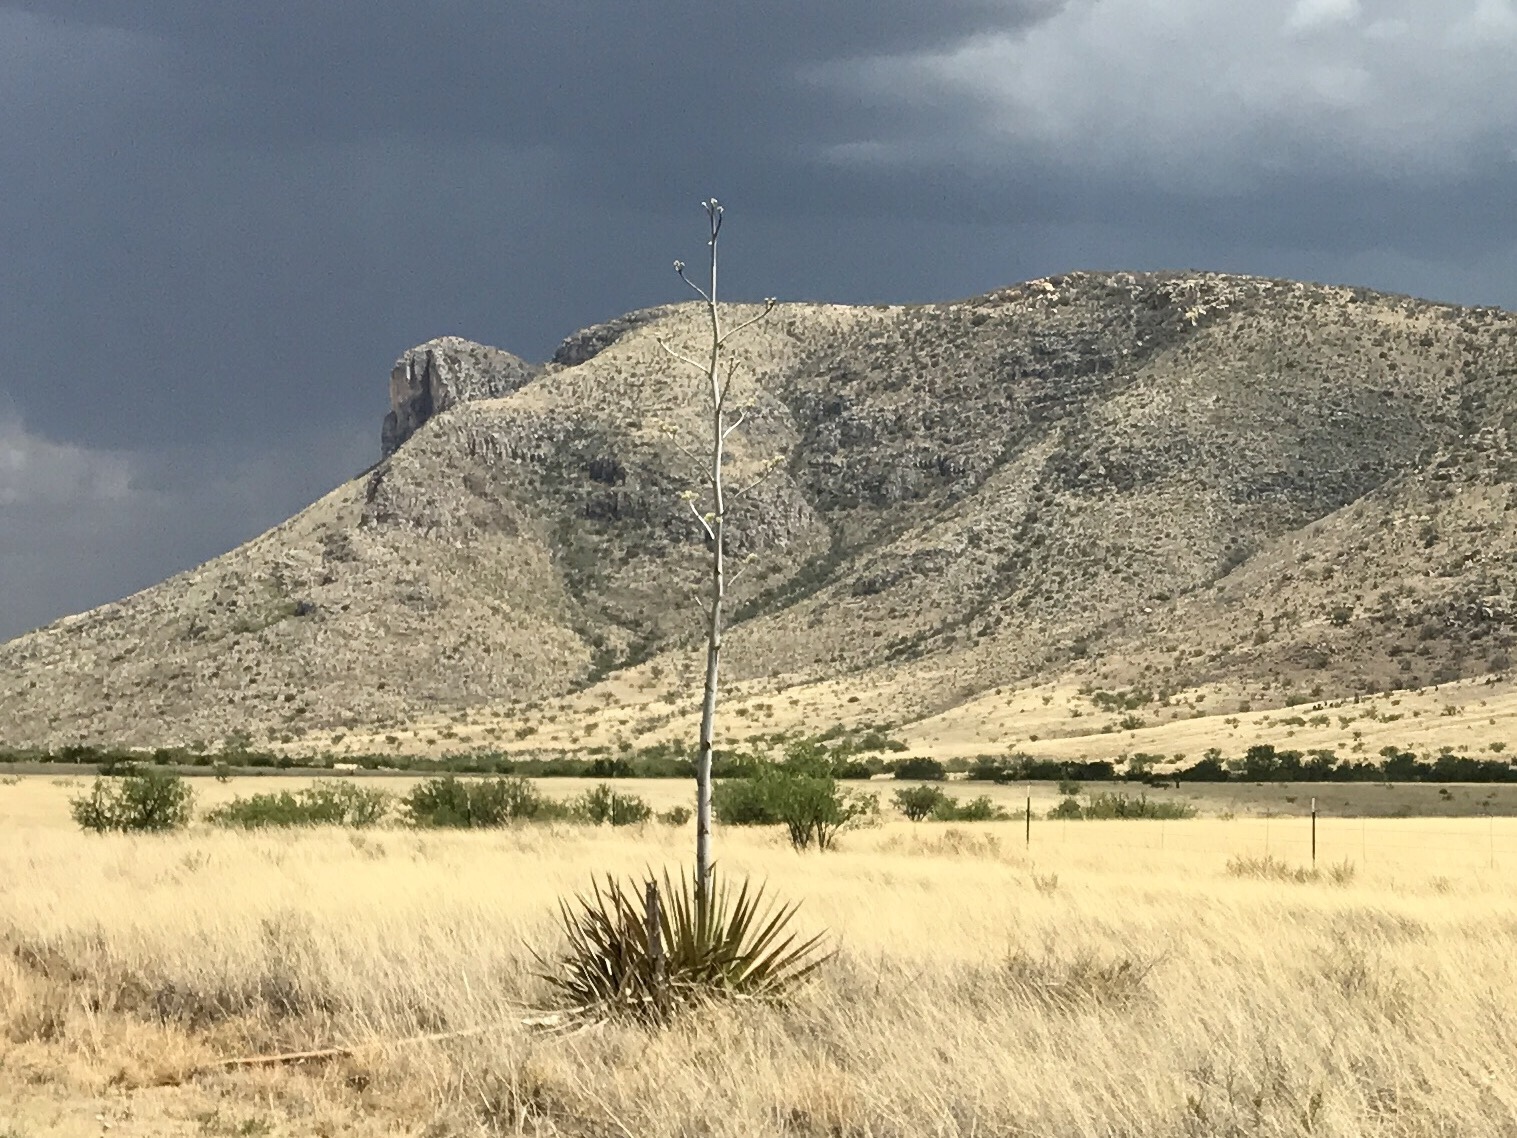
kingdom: Plantae
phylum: Tracheophyta
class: Liliopsida
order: Asparagales
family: Asparagaceae
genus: Agave
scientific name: Agave palmeri
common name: Palmer agave
